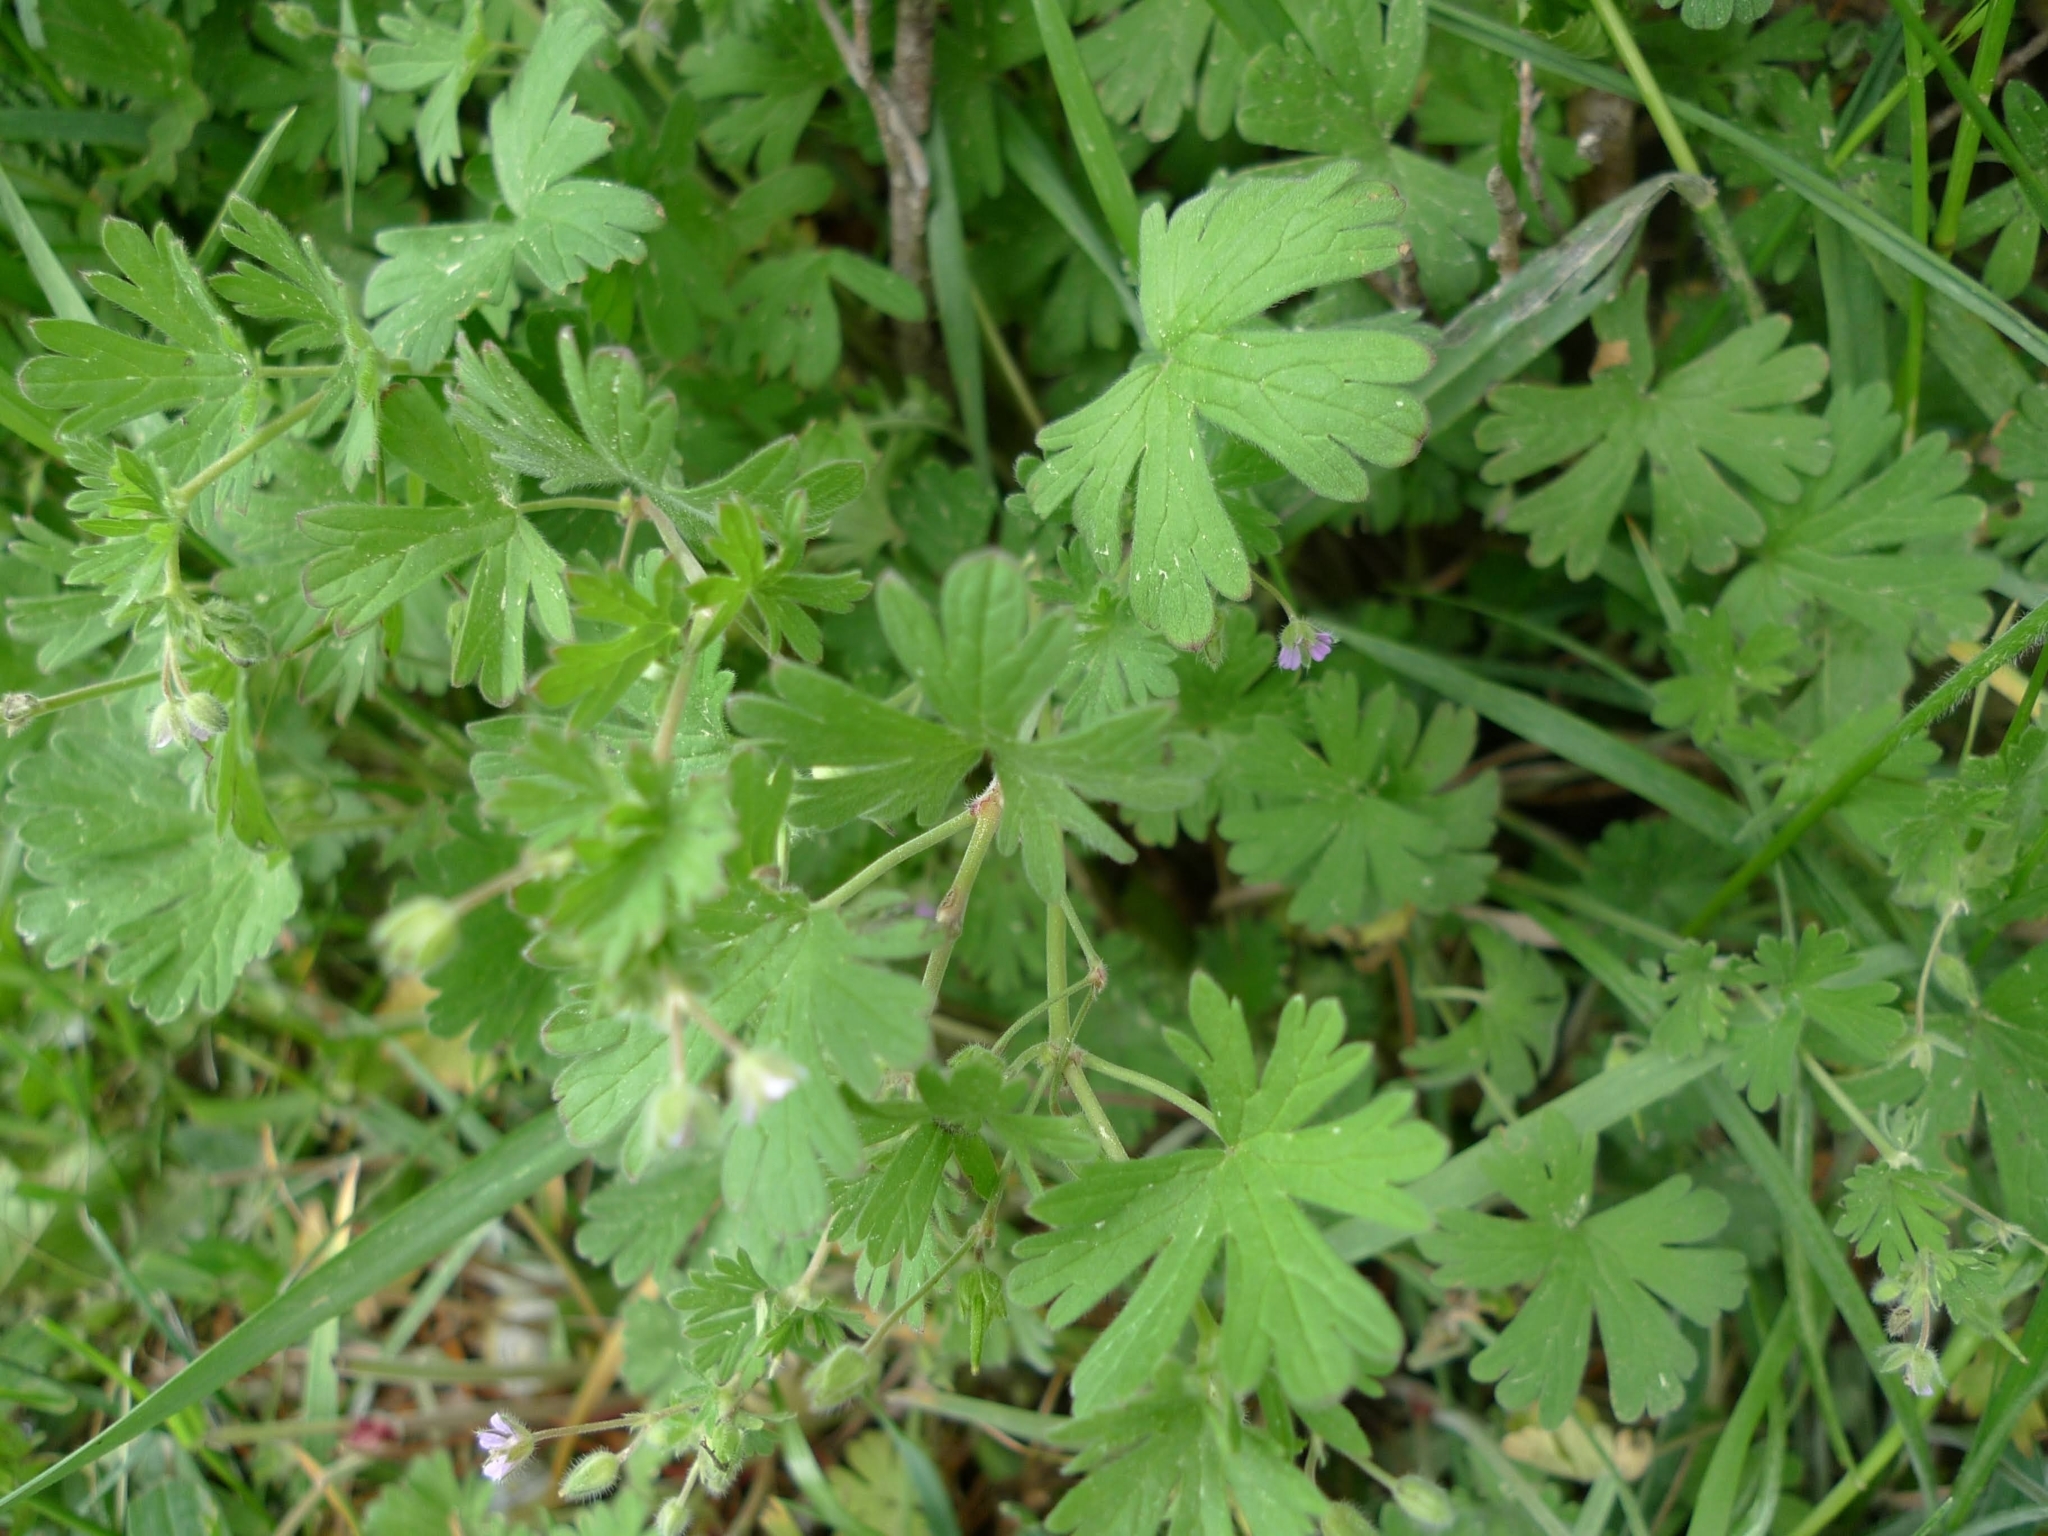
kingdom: Plantae
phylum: Tracheophyta
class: Magnoliopsida
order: Geraniales
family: Geraniaceae
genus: Geranium
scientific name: Geranium pusillum
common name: Small geranium
